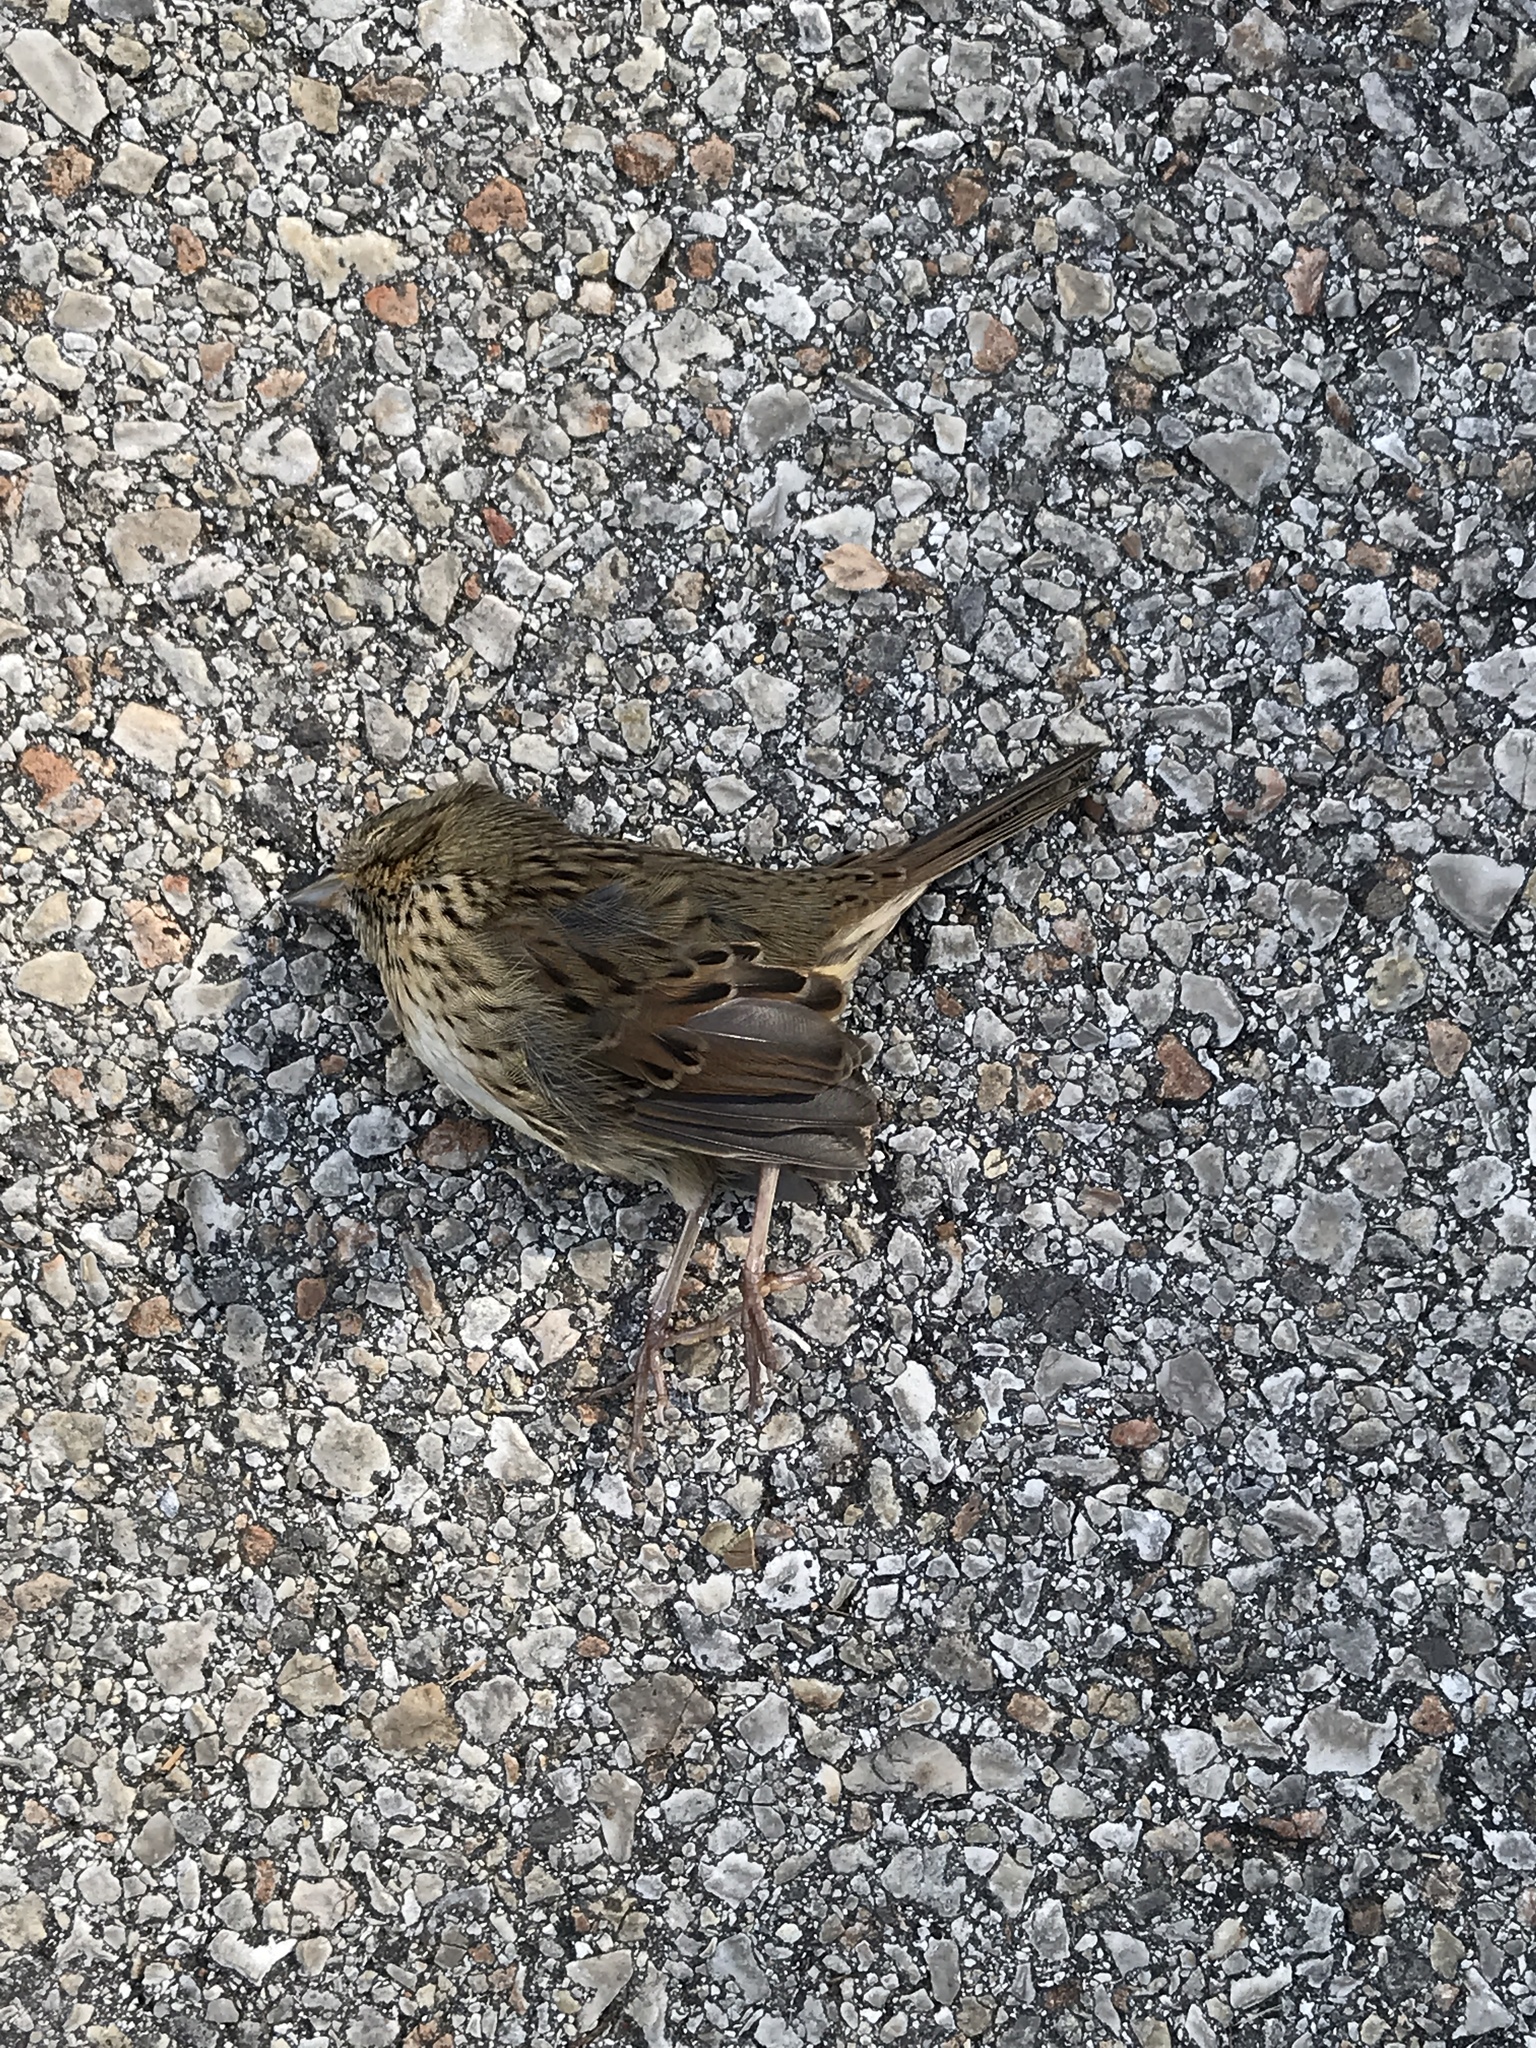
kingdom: Animalia
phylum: Chordata
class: Aves
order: Passeriformes
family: Passerellidae
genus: Melospiza
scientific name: Melospiza lincolnii
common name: Lincoln's sparrow
